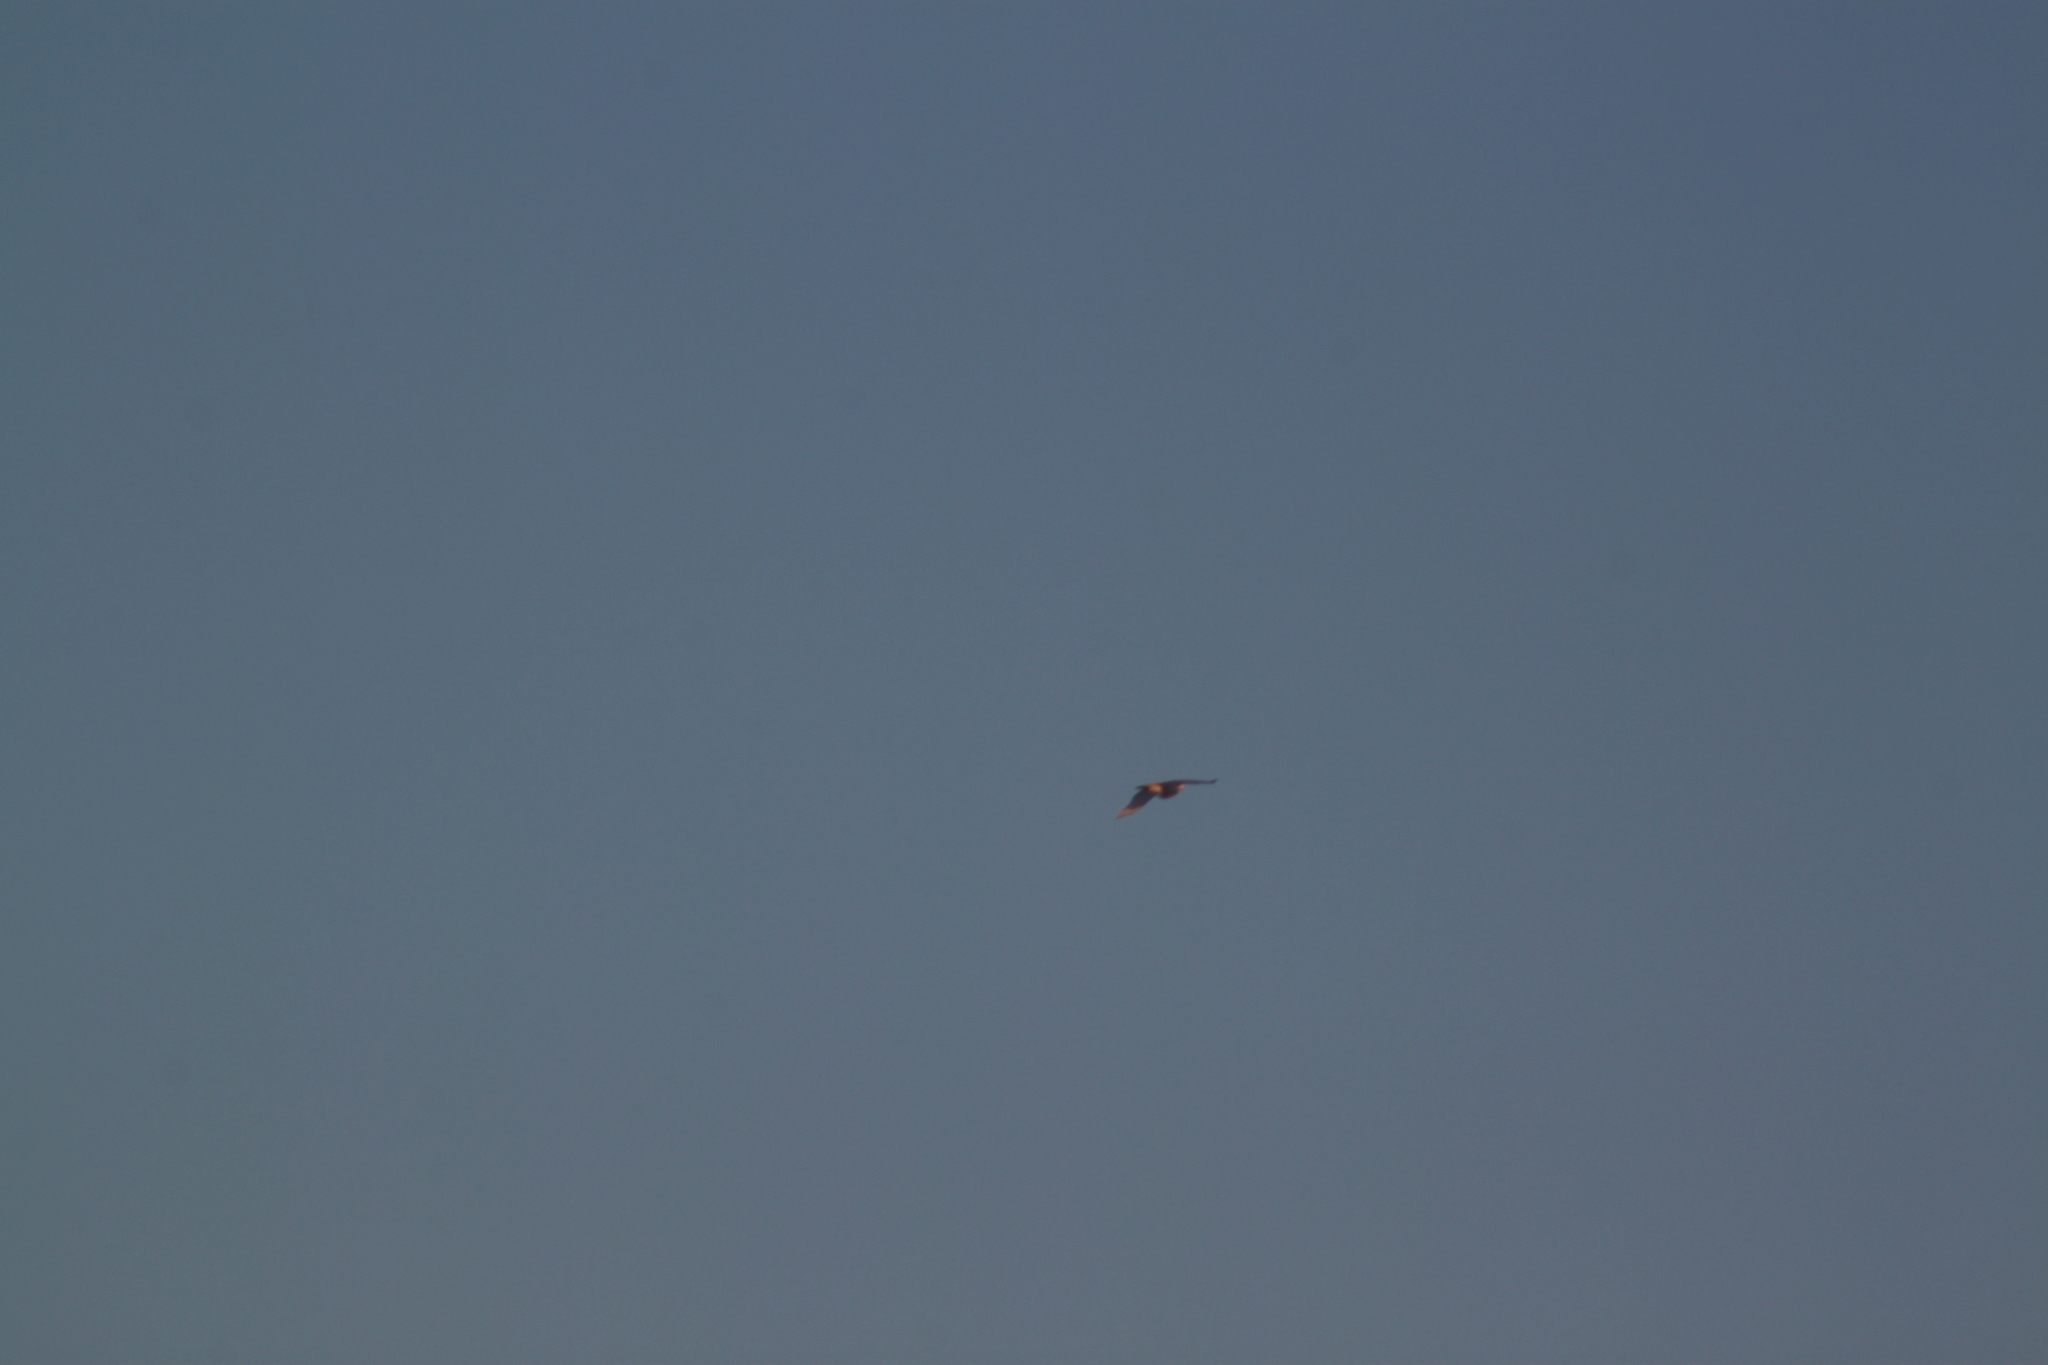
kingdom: Animalia
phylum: Chordata
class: Aves
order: Strigiformes
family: Strigidae
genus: Bubo
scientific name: Bubo scandiacus
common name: Snowy owl
